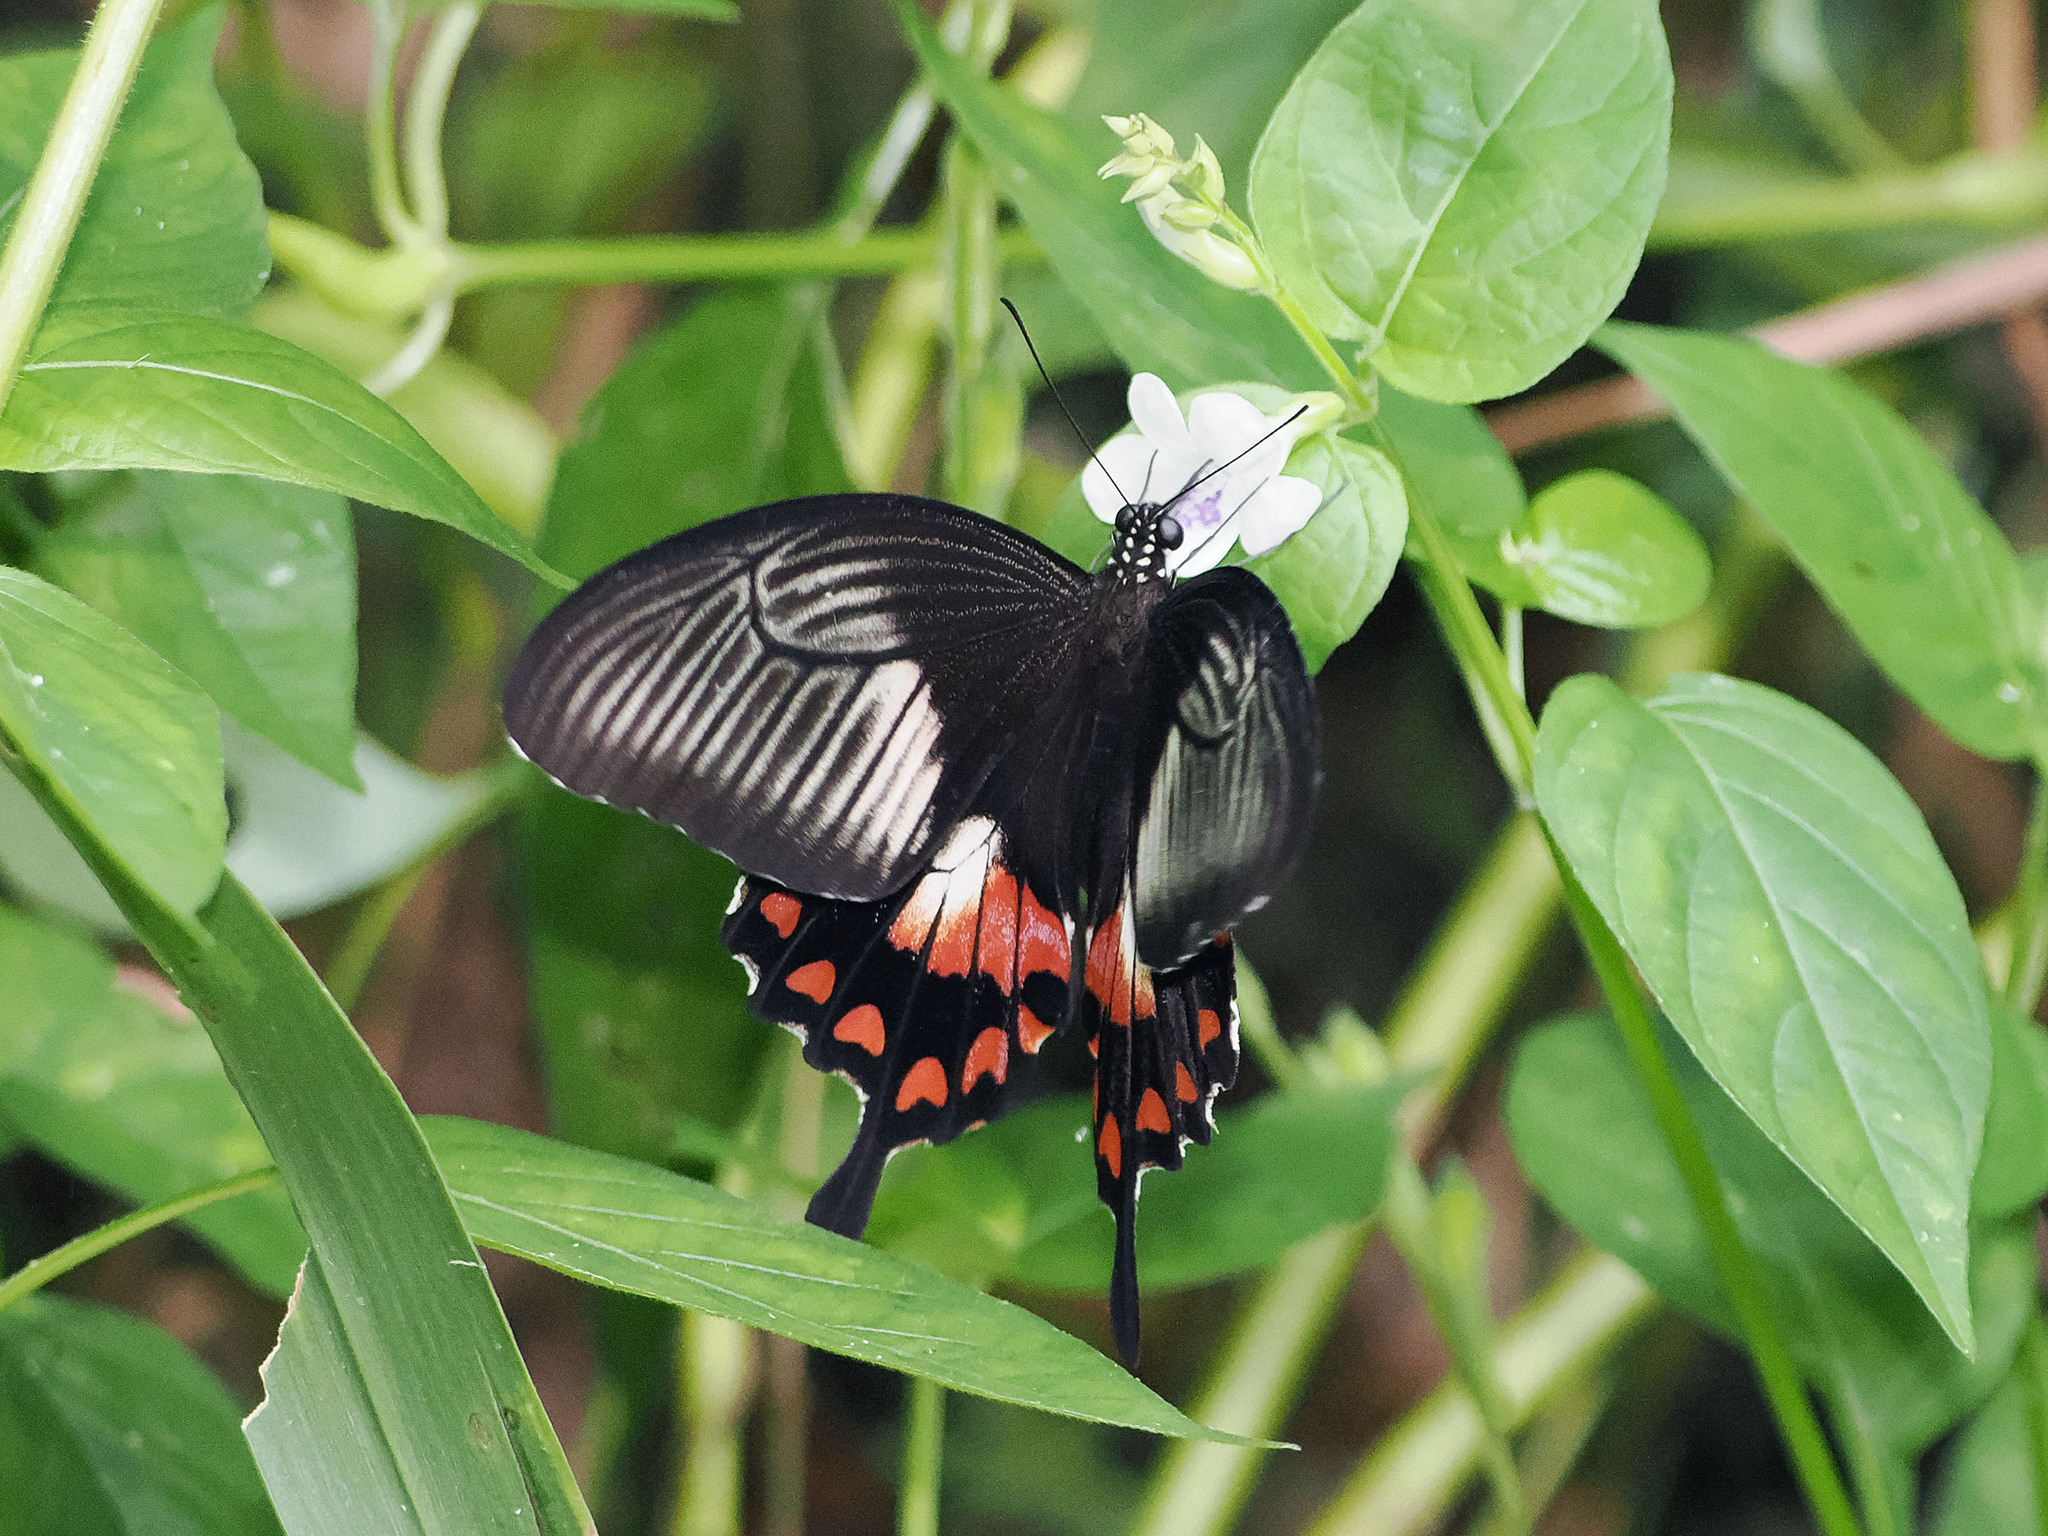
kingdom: Animalia
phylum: Arthropoda
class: Insecta
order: Lepidoptera
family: Papilionidae
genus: Papilio
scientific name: Papilio alphenor
